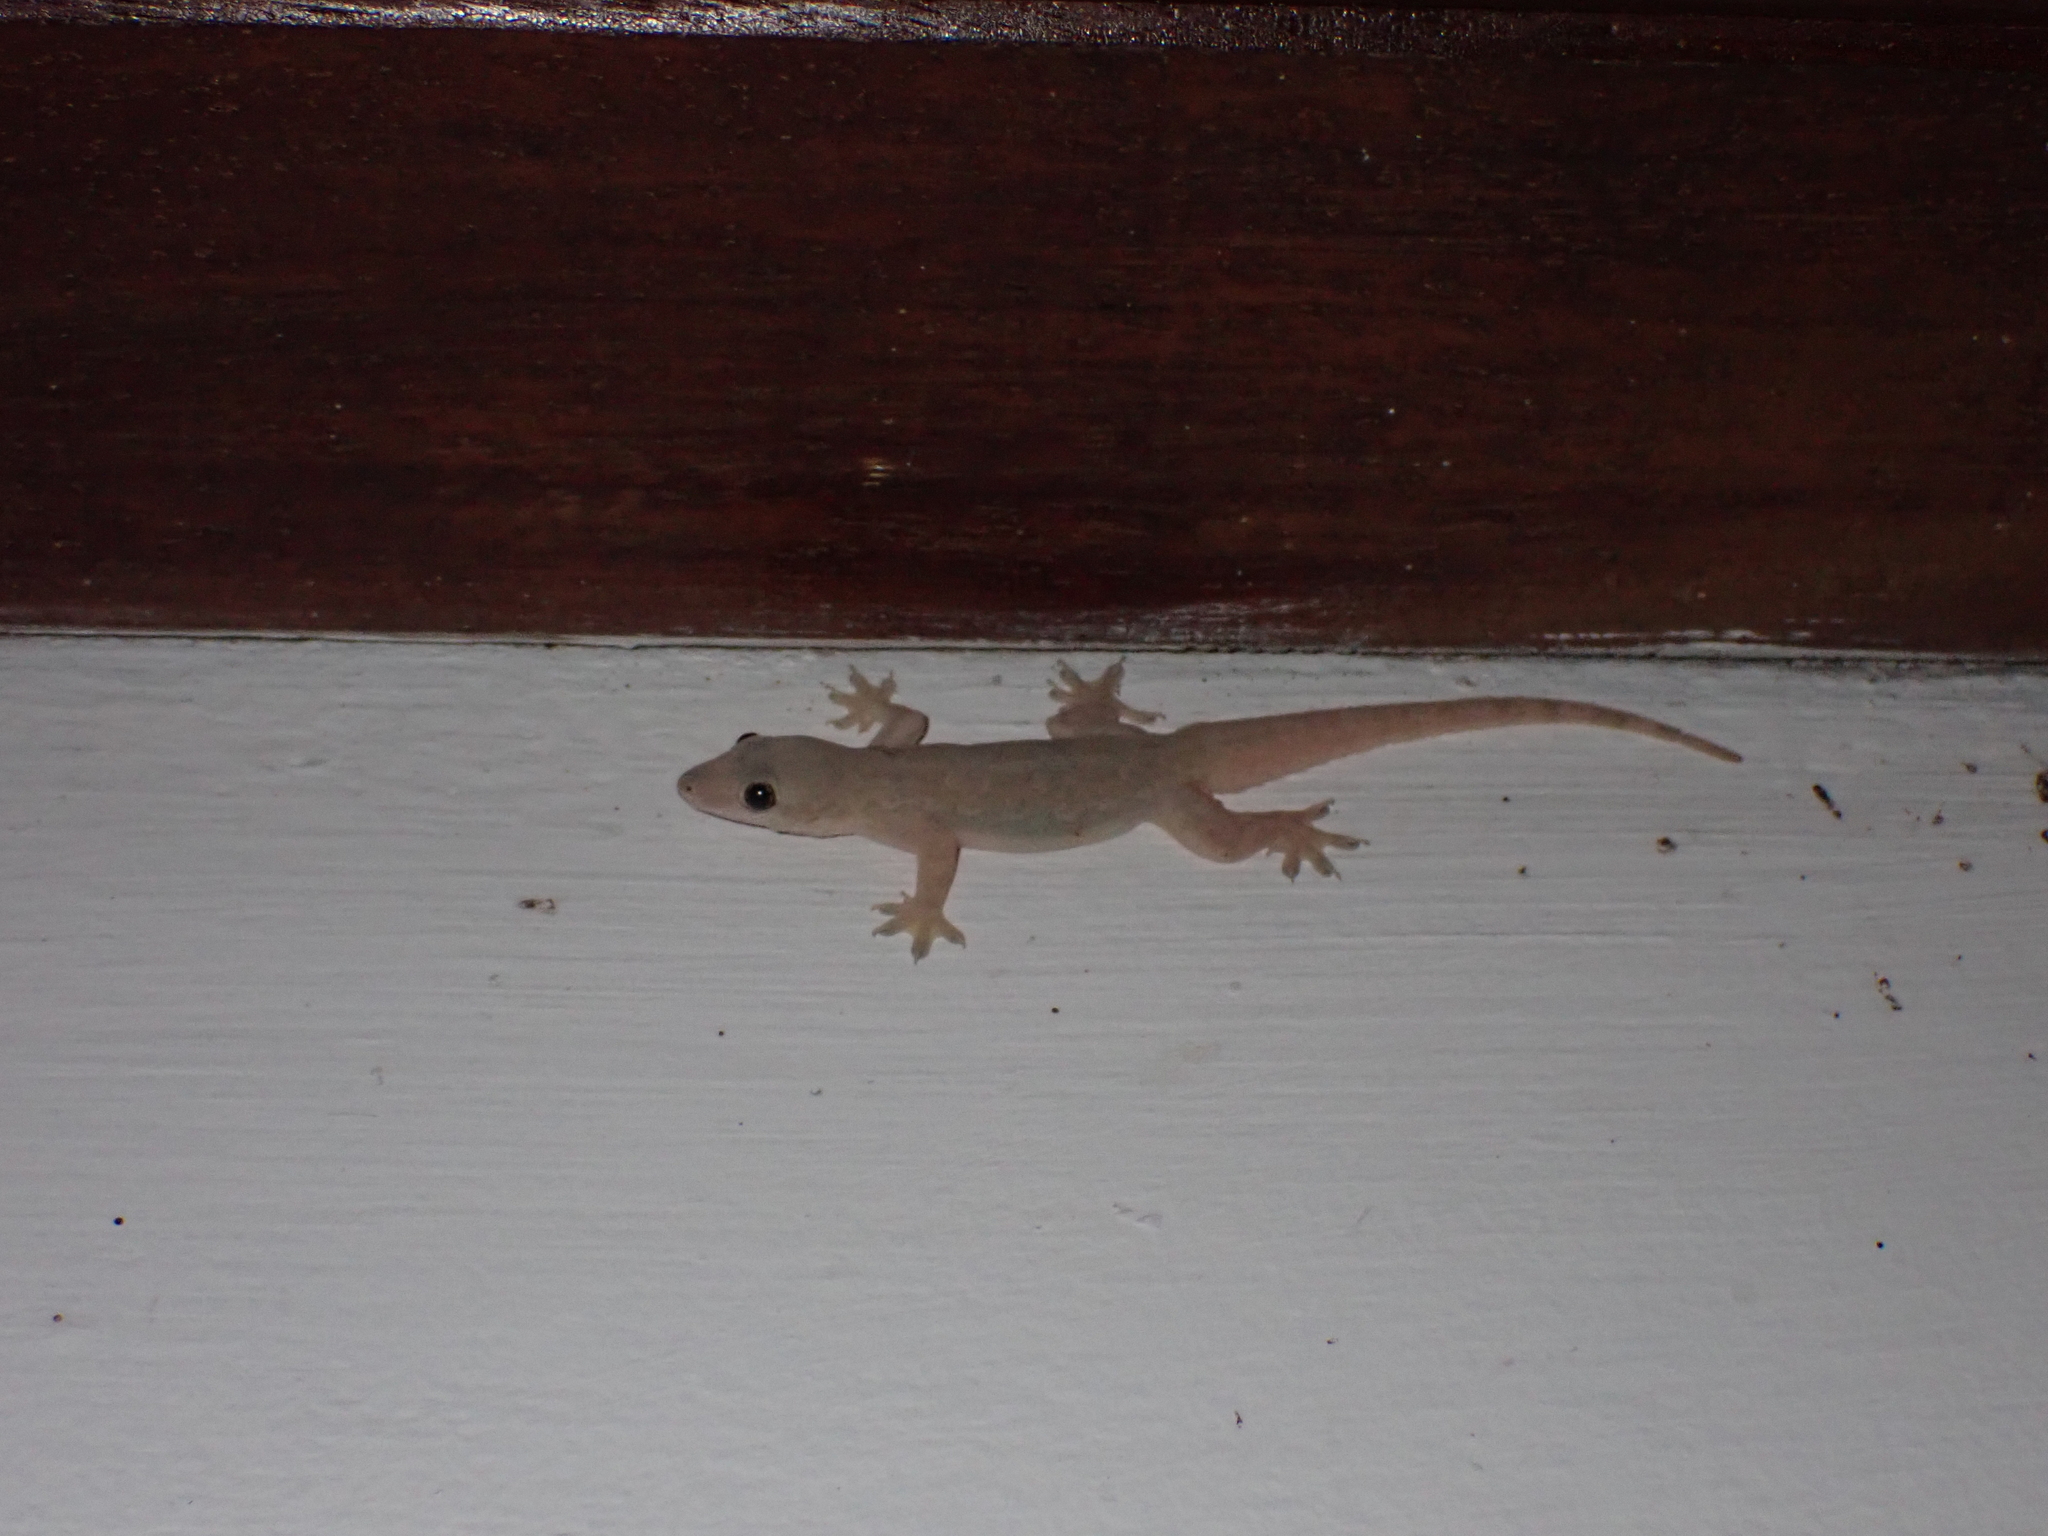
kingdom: Animalia
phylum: Chordata
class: Squamata
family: Gekkonidae
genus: Hemidactylus
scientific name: Hemidactylus platyurus
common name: Flat-tailed house gecko
